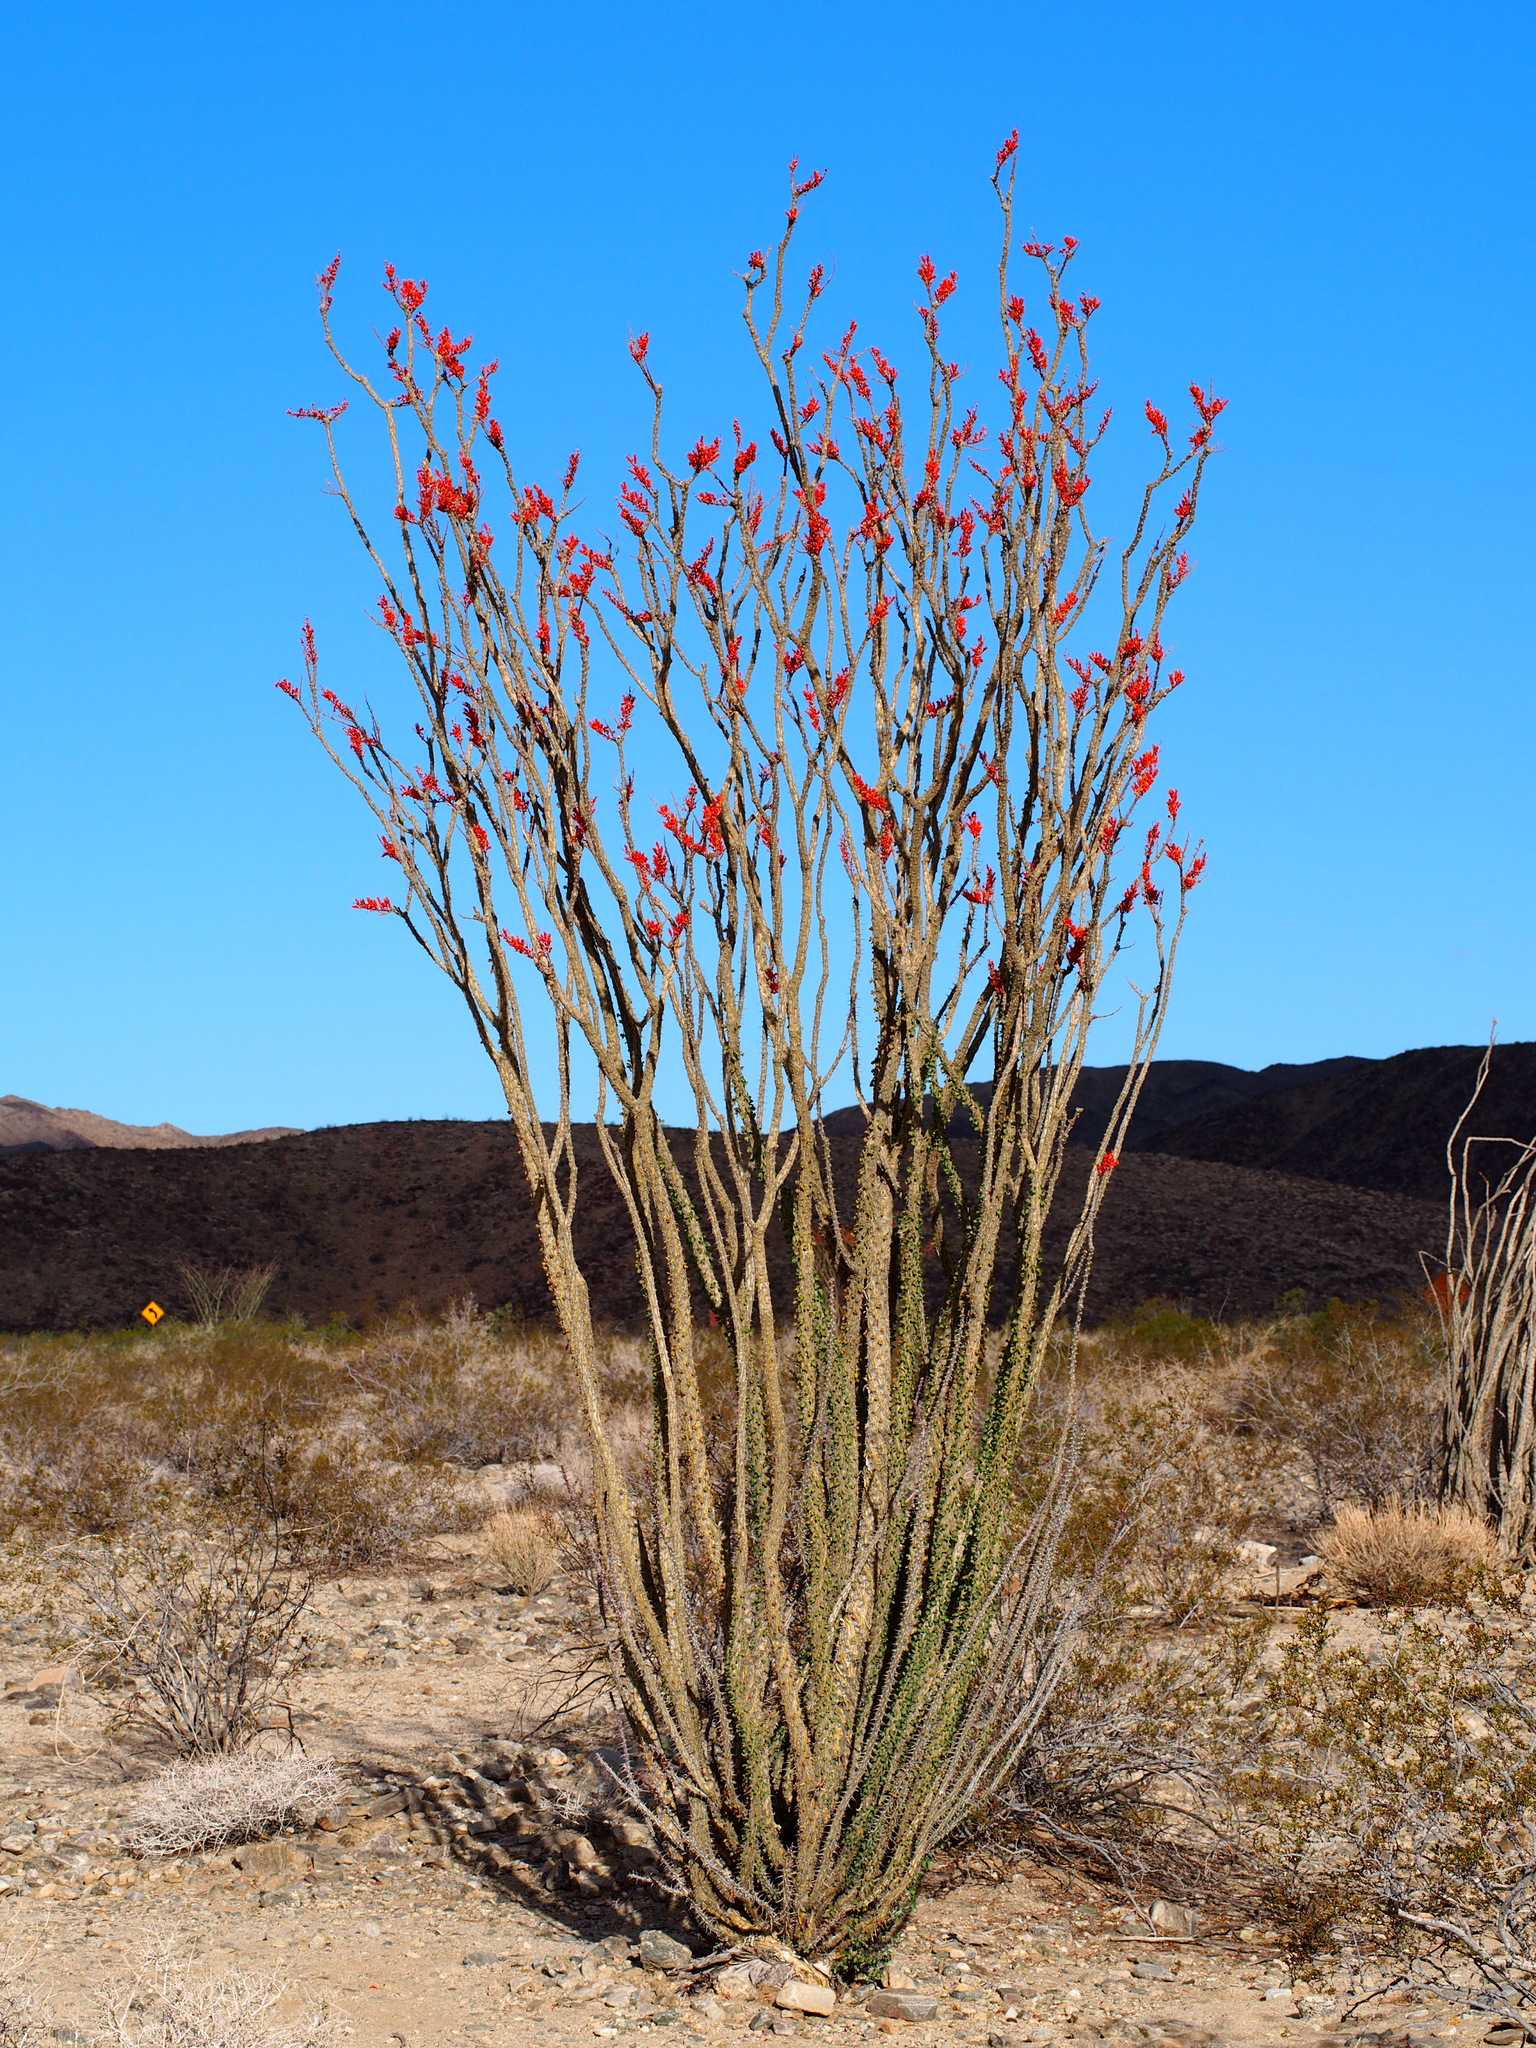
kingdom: Plantae
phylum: Tracheophyta
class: Magnoliopsida
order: Ericales
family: Fouquieriaceae
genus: Fouquieria
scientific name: Fouquieria splendens
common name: Vine-cactus
